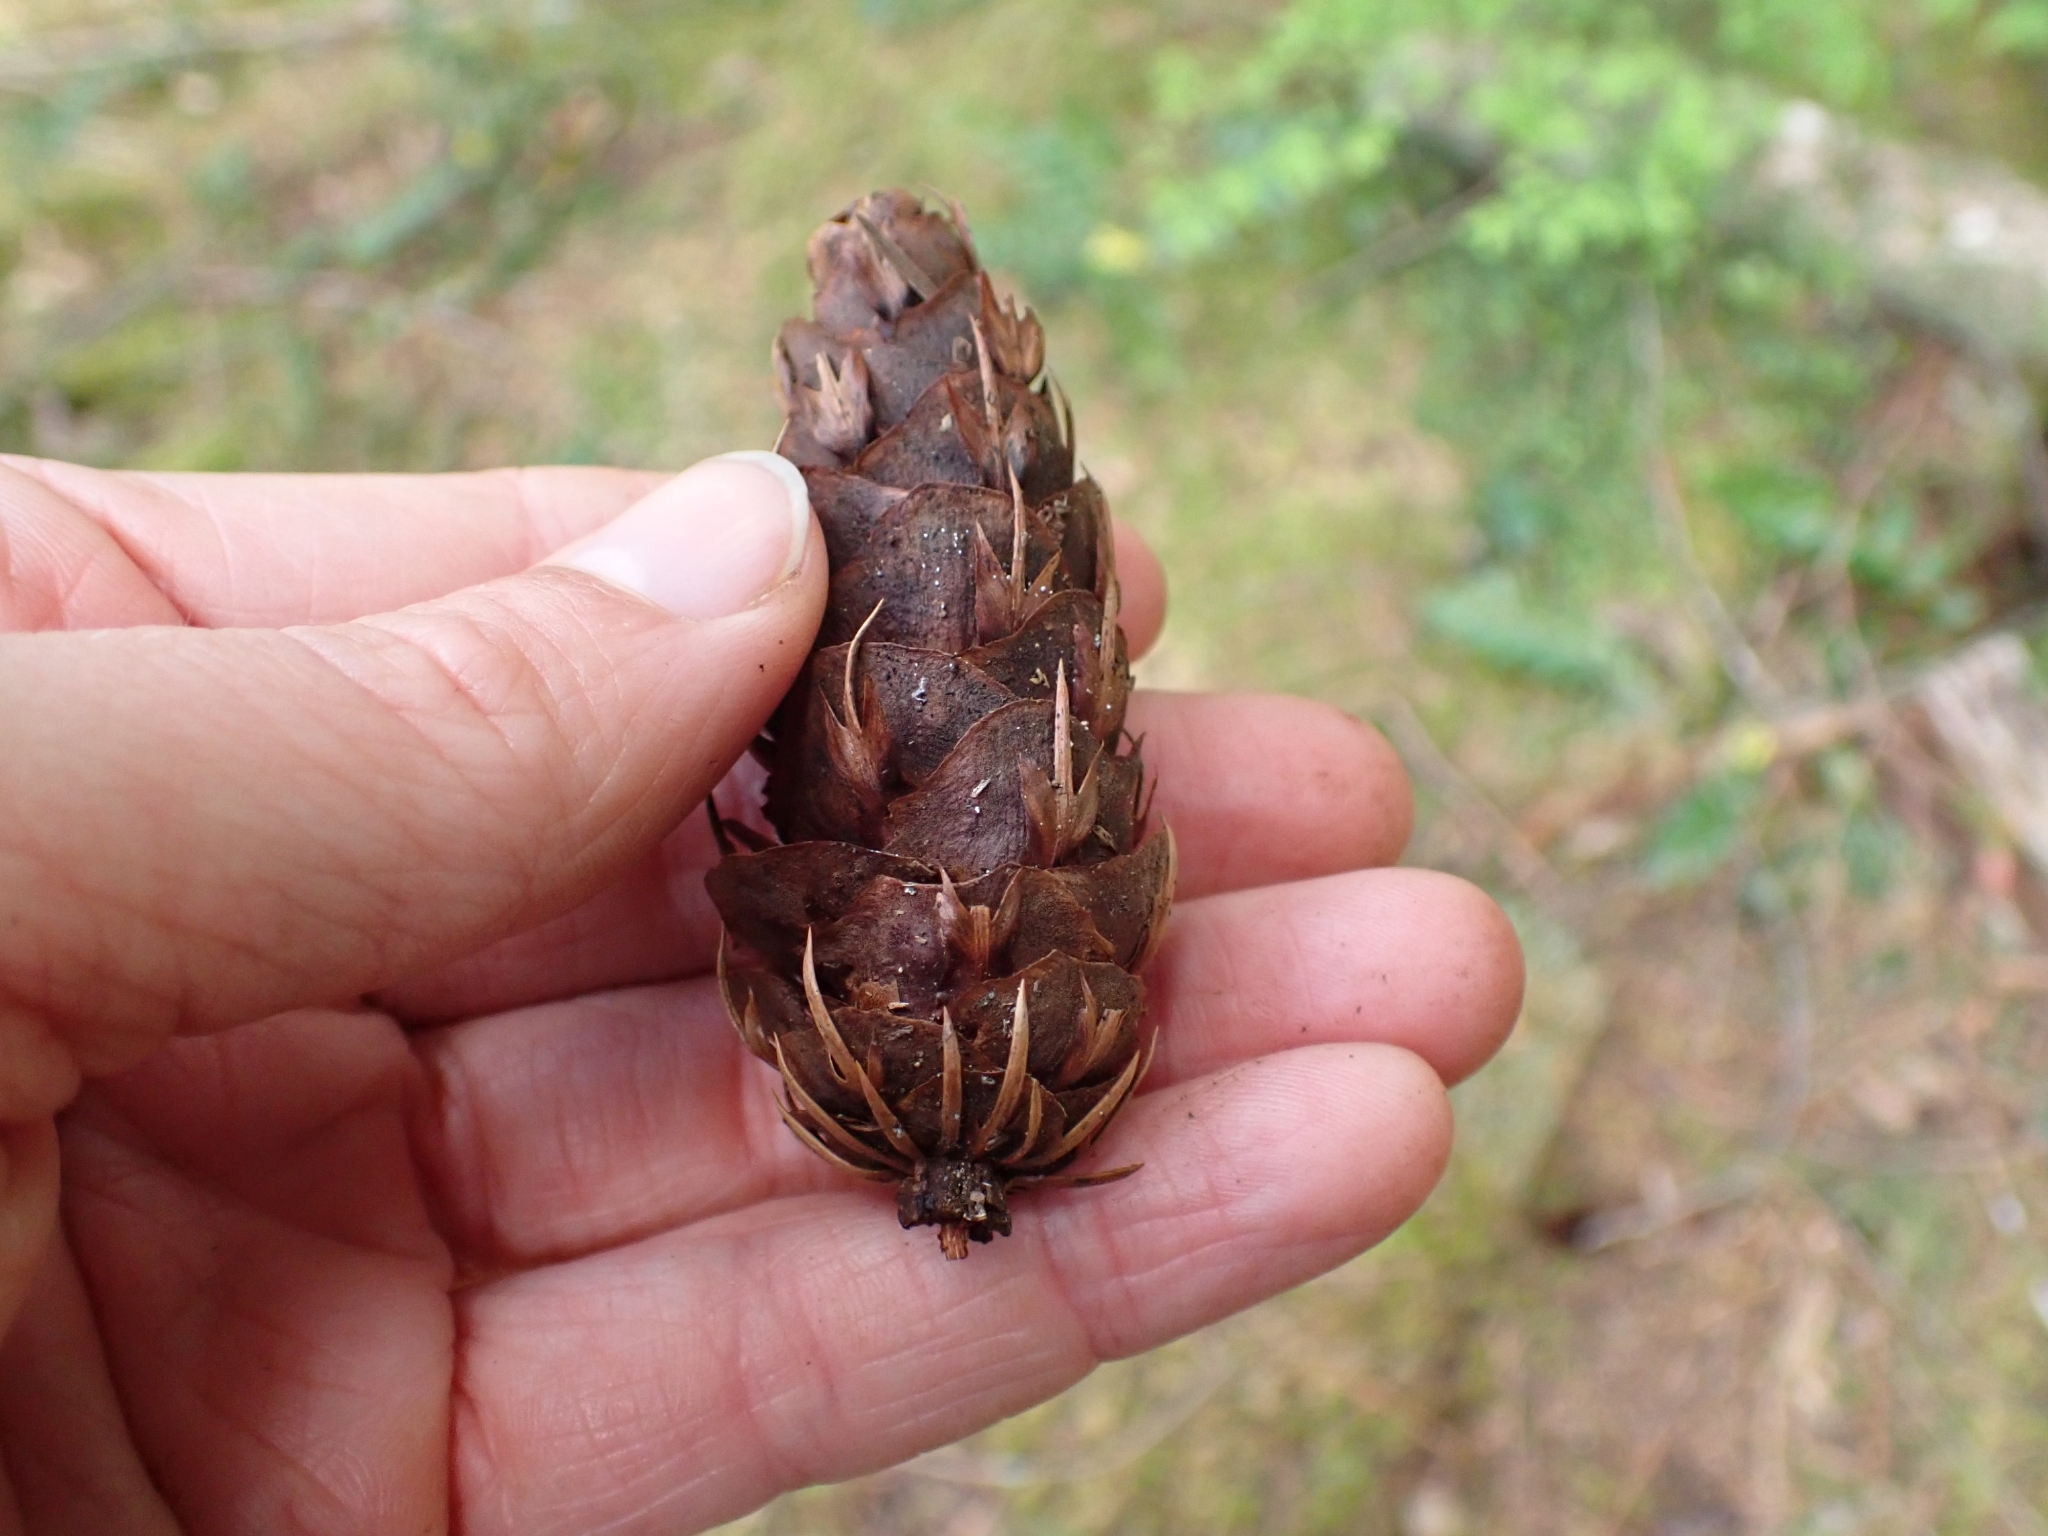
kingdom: Plantae
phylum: Tracheophyta
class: Pinopsida
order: Pinales
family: Pinaceae
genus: Pseudotsuga
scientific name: Pseudotsuga menziesii
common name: Douglas fir
